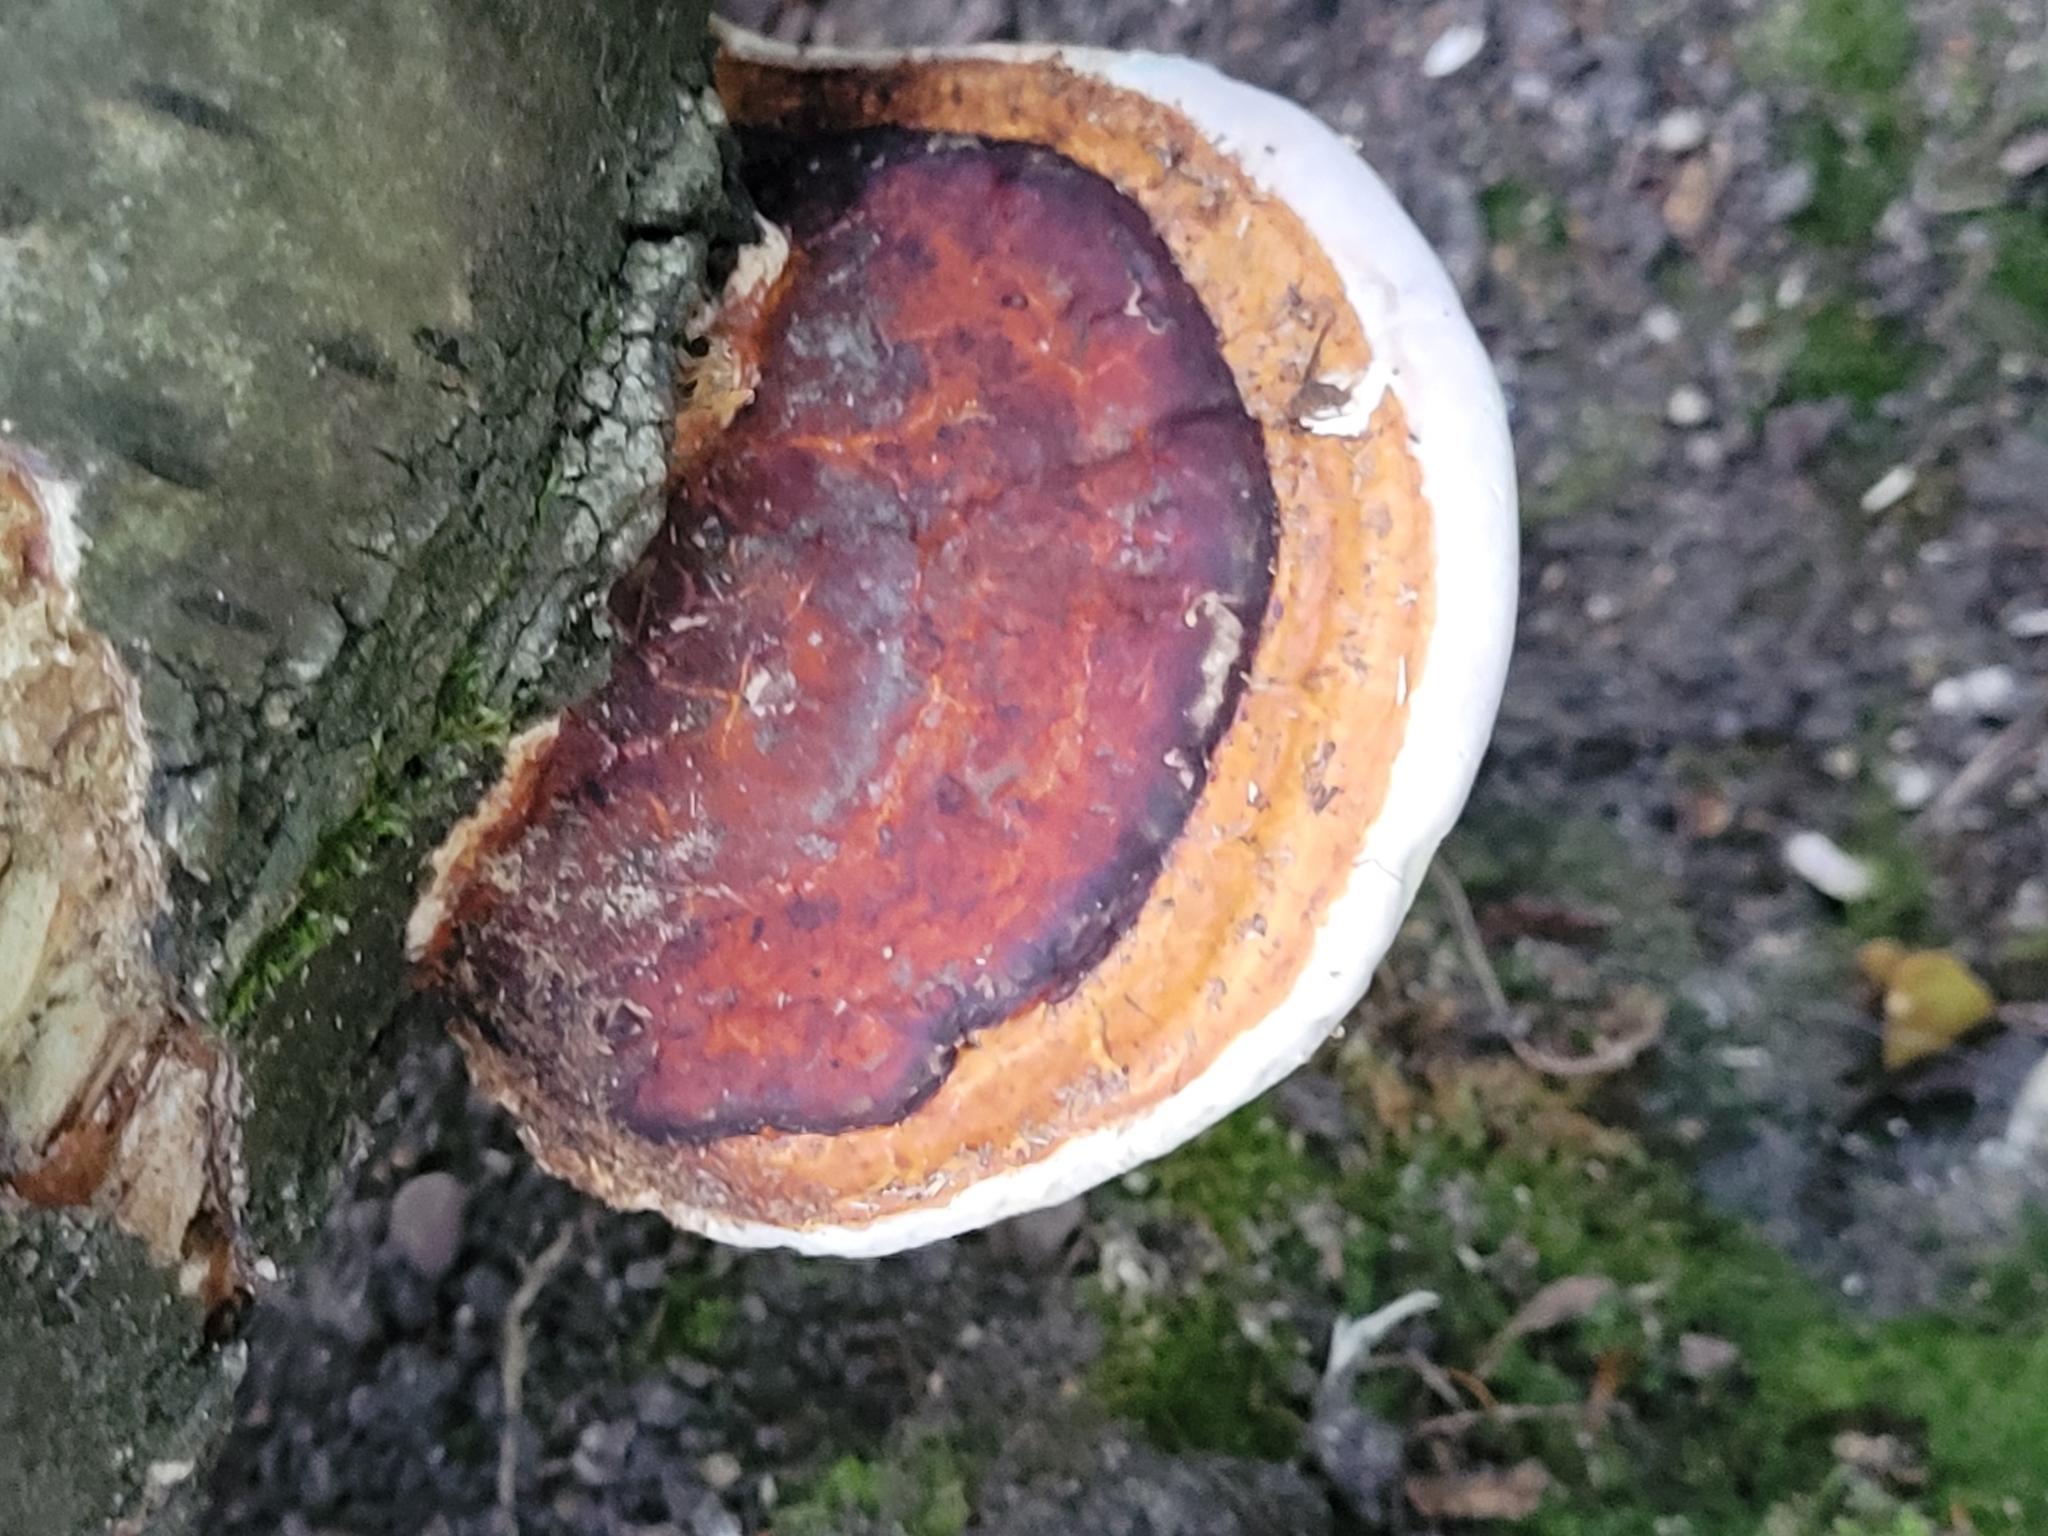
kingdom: Fungi
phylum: Basidiomycota
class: Agaricomycetes
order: Polyporales
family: Fomitopsidaceae
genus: Fomitopsis
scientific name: Fomitopsis pinicola
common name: Red-belted bracket
